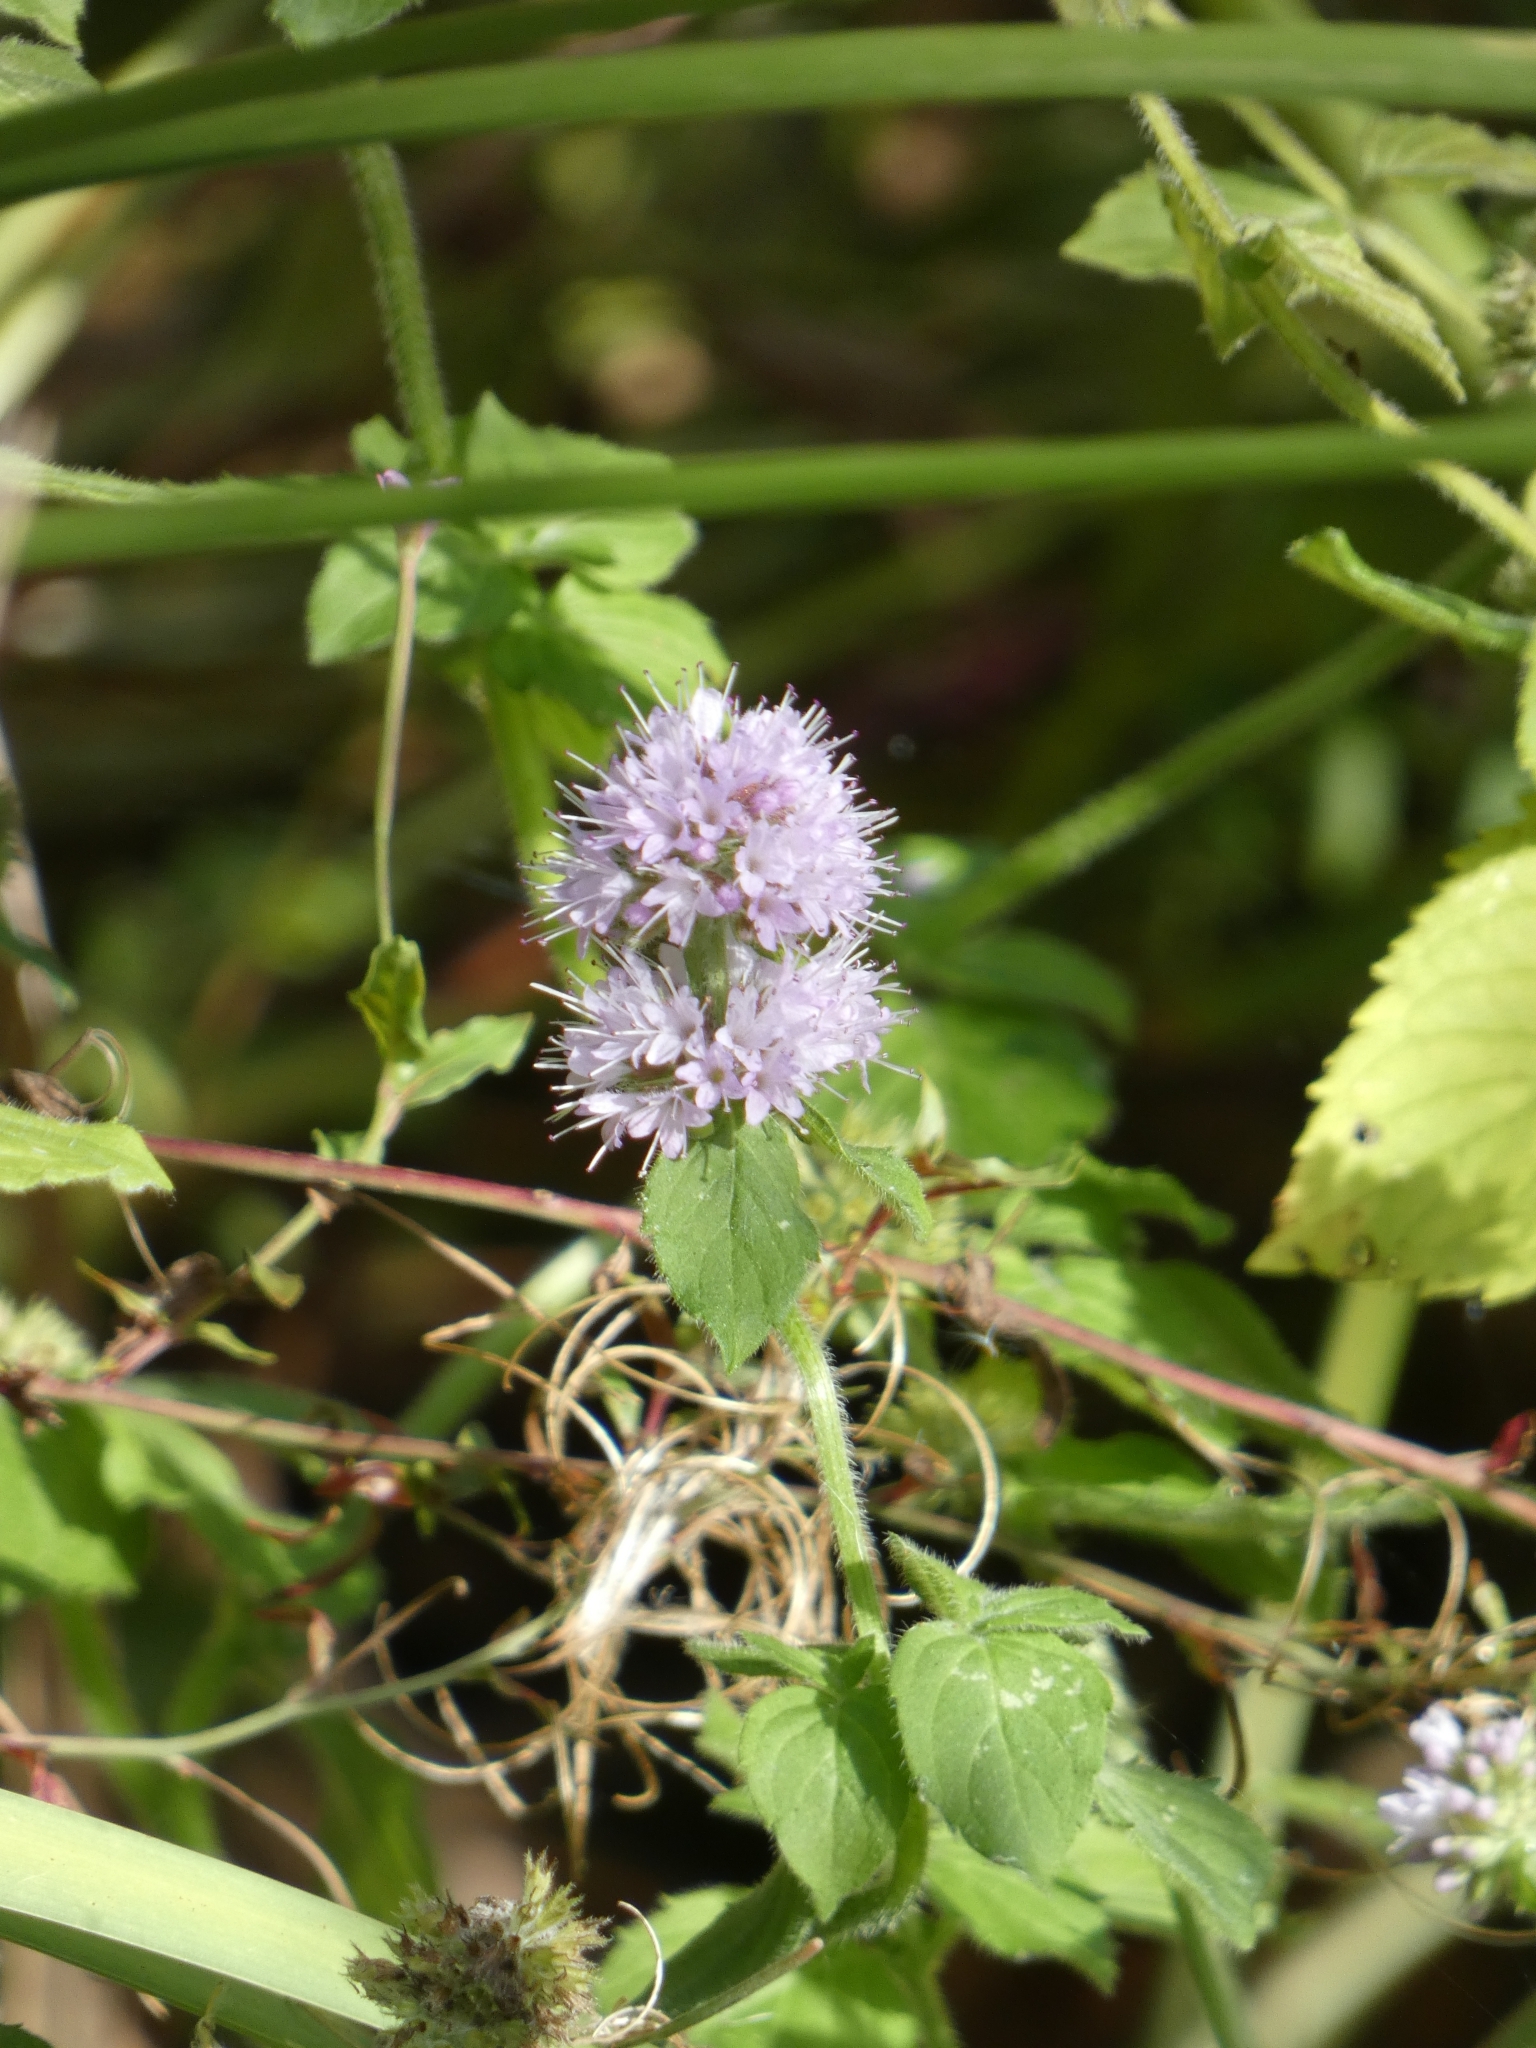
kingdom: Plantae
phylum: Tracheophyta
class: Magnoliopsida
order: Lamiales
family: Lamiaceae
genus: Mentha
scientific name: Mentha aquatica
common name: Water mint
